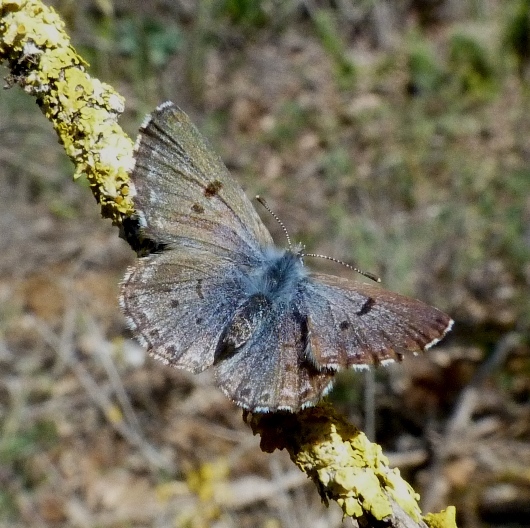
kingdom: Animalia
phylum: Arthropoda
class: Insecta
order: Lepidoptera
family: Lycaenidae
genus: Pseudophilotes
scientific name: Pseudophilotes baton
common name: Baton blue
